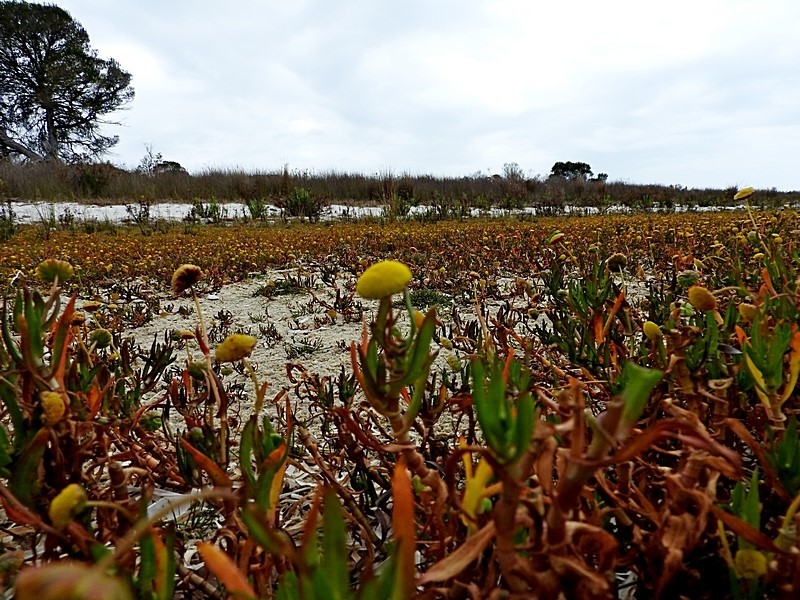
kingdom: Plantae
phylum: Tracheophyta
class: Magnoliopsida
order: Asterales
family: Asteraceae
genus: Cotula
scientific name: Cotula coronopifolia
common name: Buttonweed
